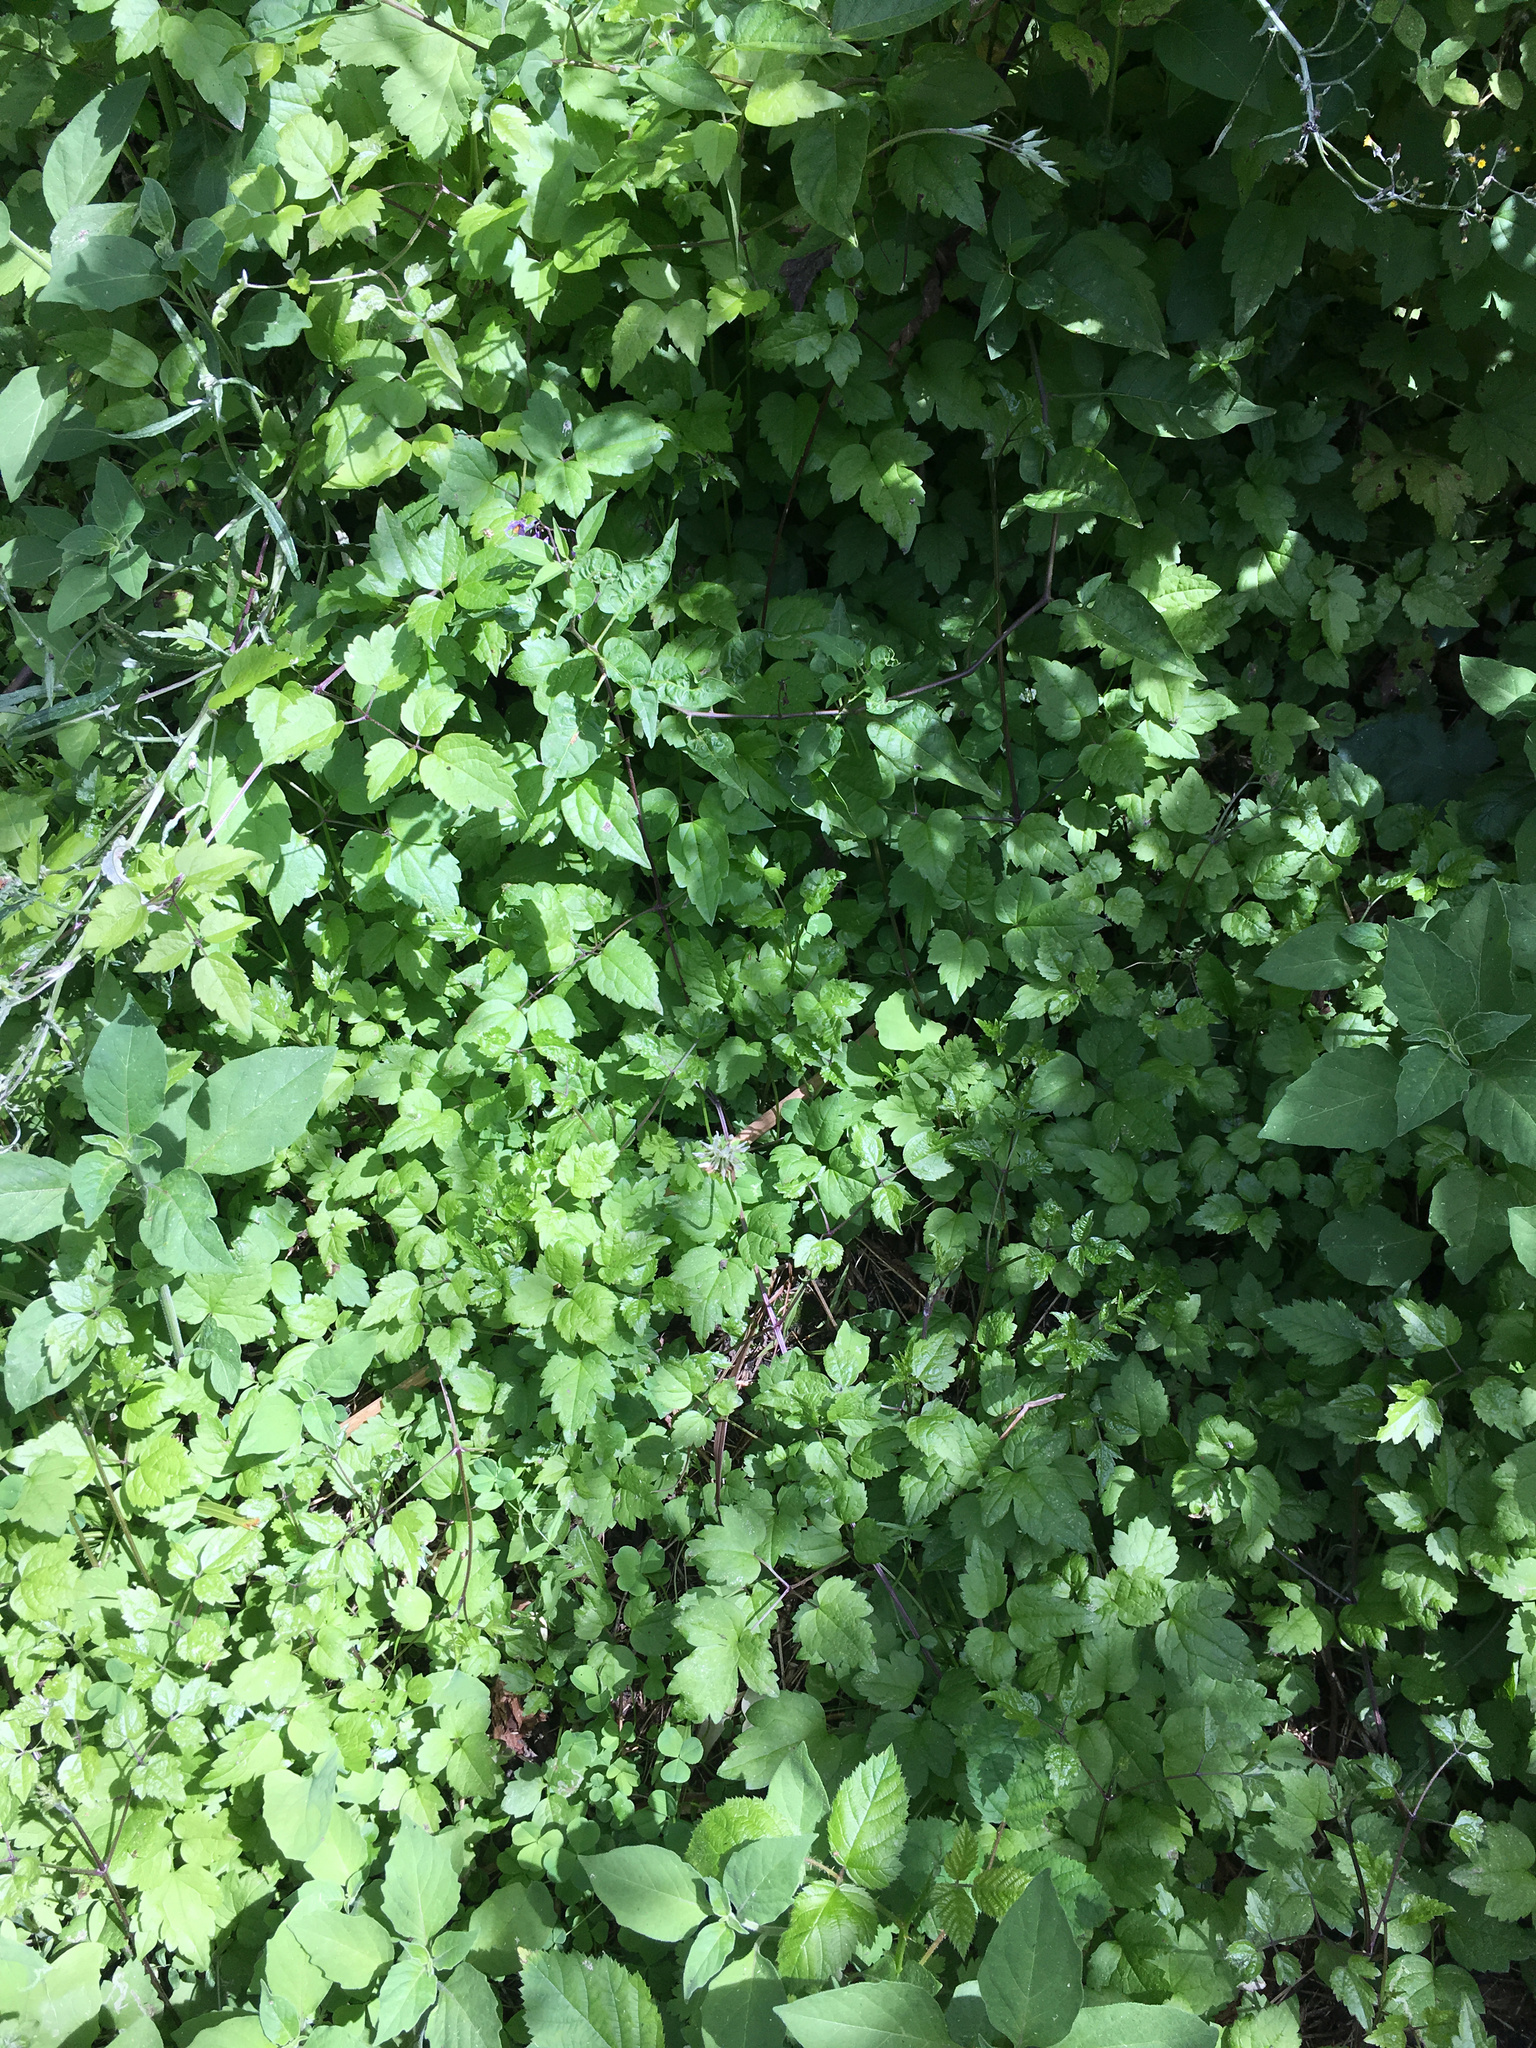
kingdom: Plantae
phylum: Tracheophyta
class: Magnoliopsida
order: Ranunculales
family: Ranunculaceae
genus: Clematis
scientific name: Clematis vitalba
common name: Evergreen clematis
